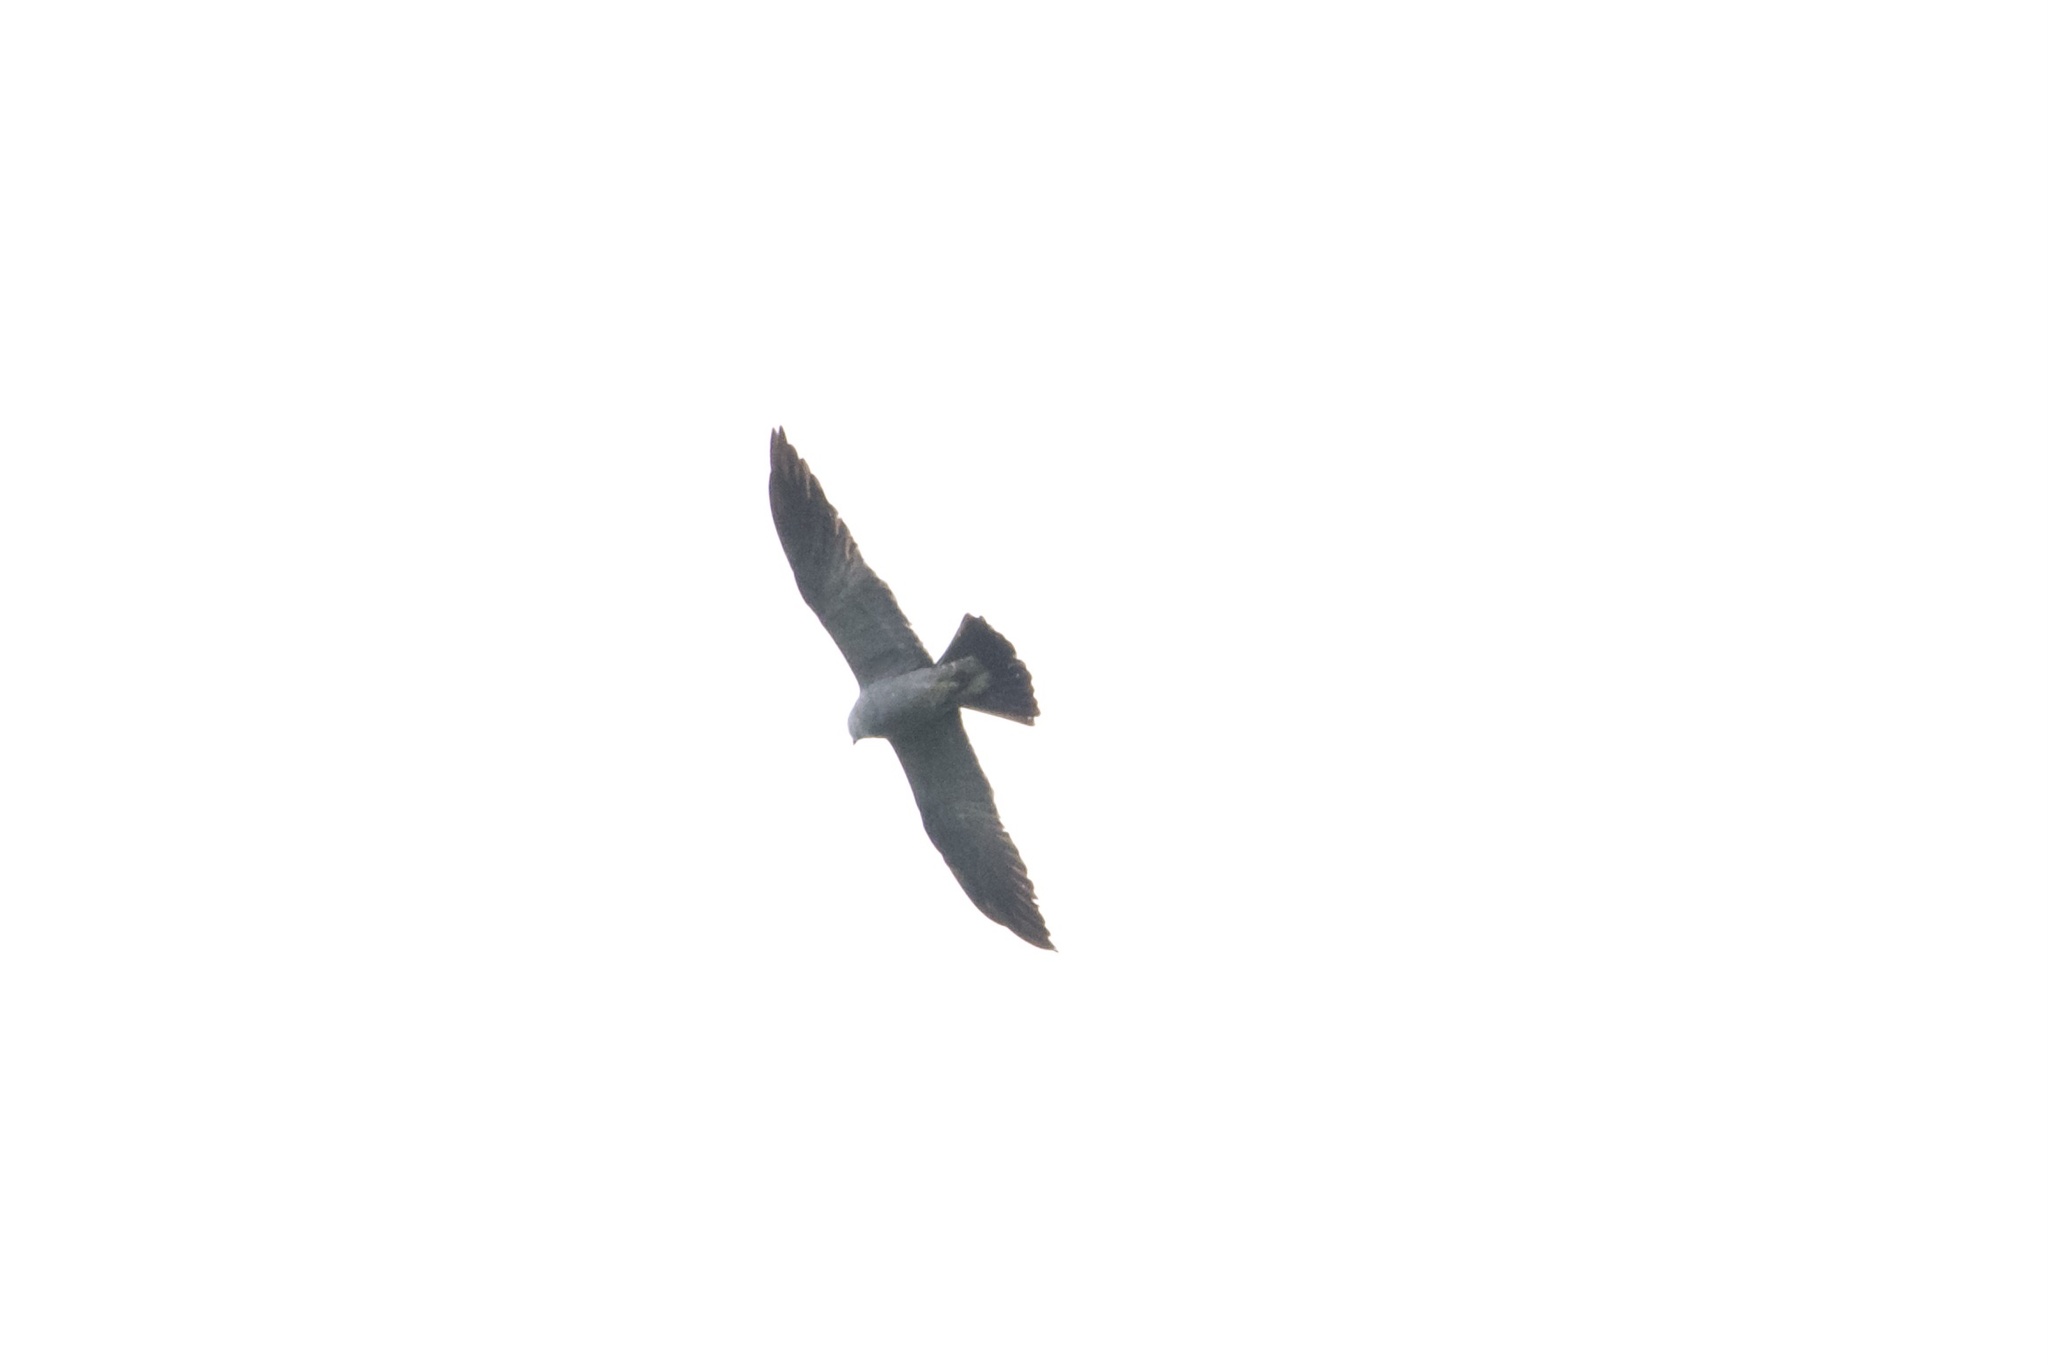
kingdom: Animalia
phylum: Chordata
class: Aves
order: Accipitriformes
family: Accipitridae
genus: Ictinia
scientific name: Ictinia mississippiensis
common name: Mississippi kite
